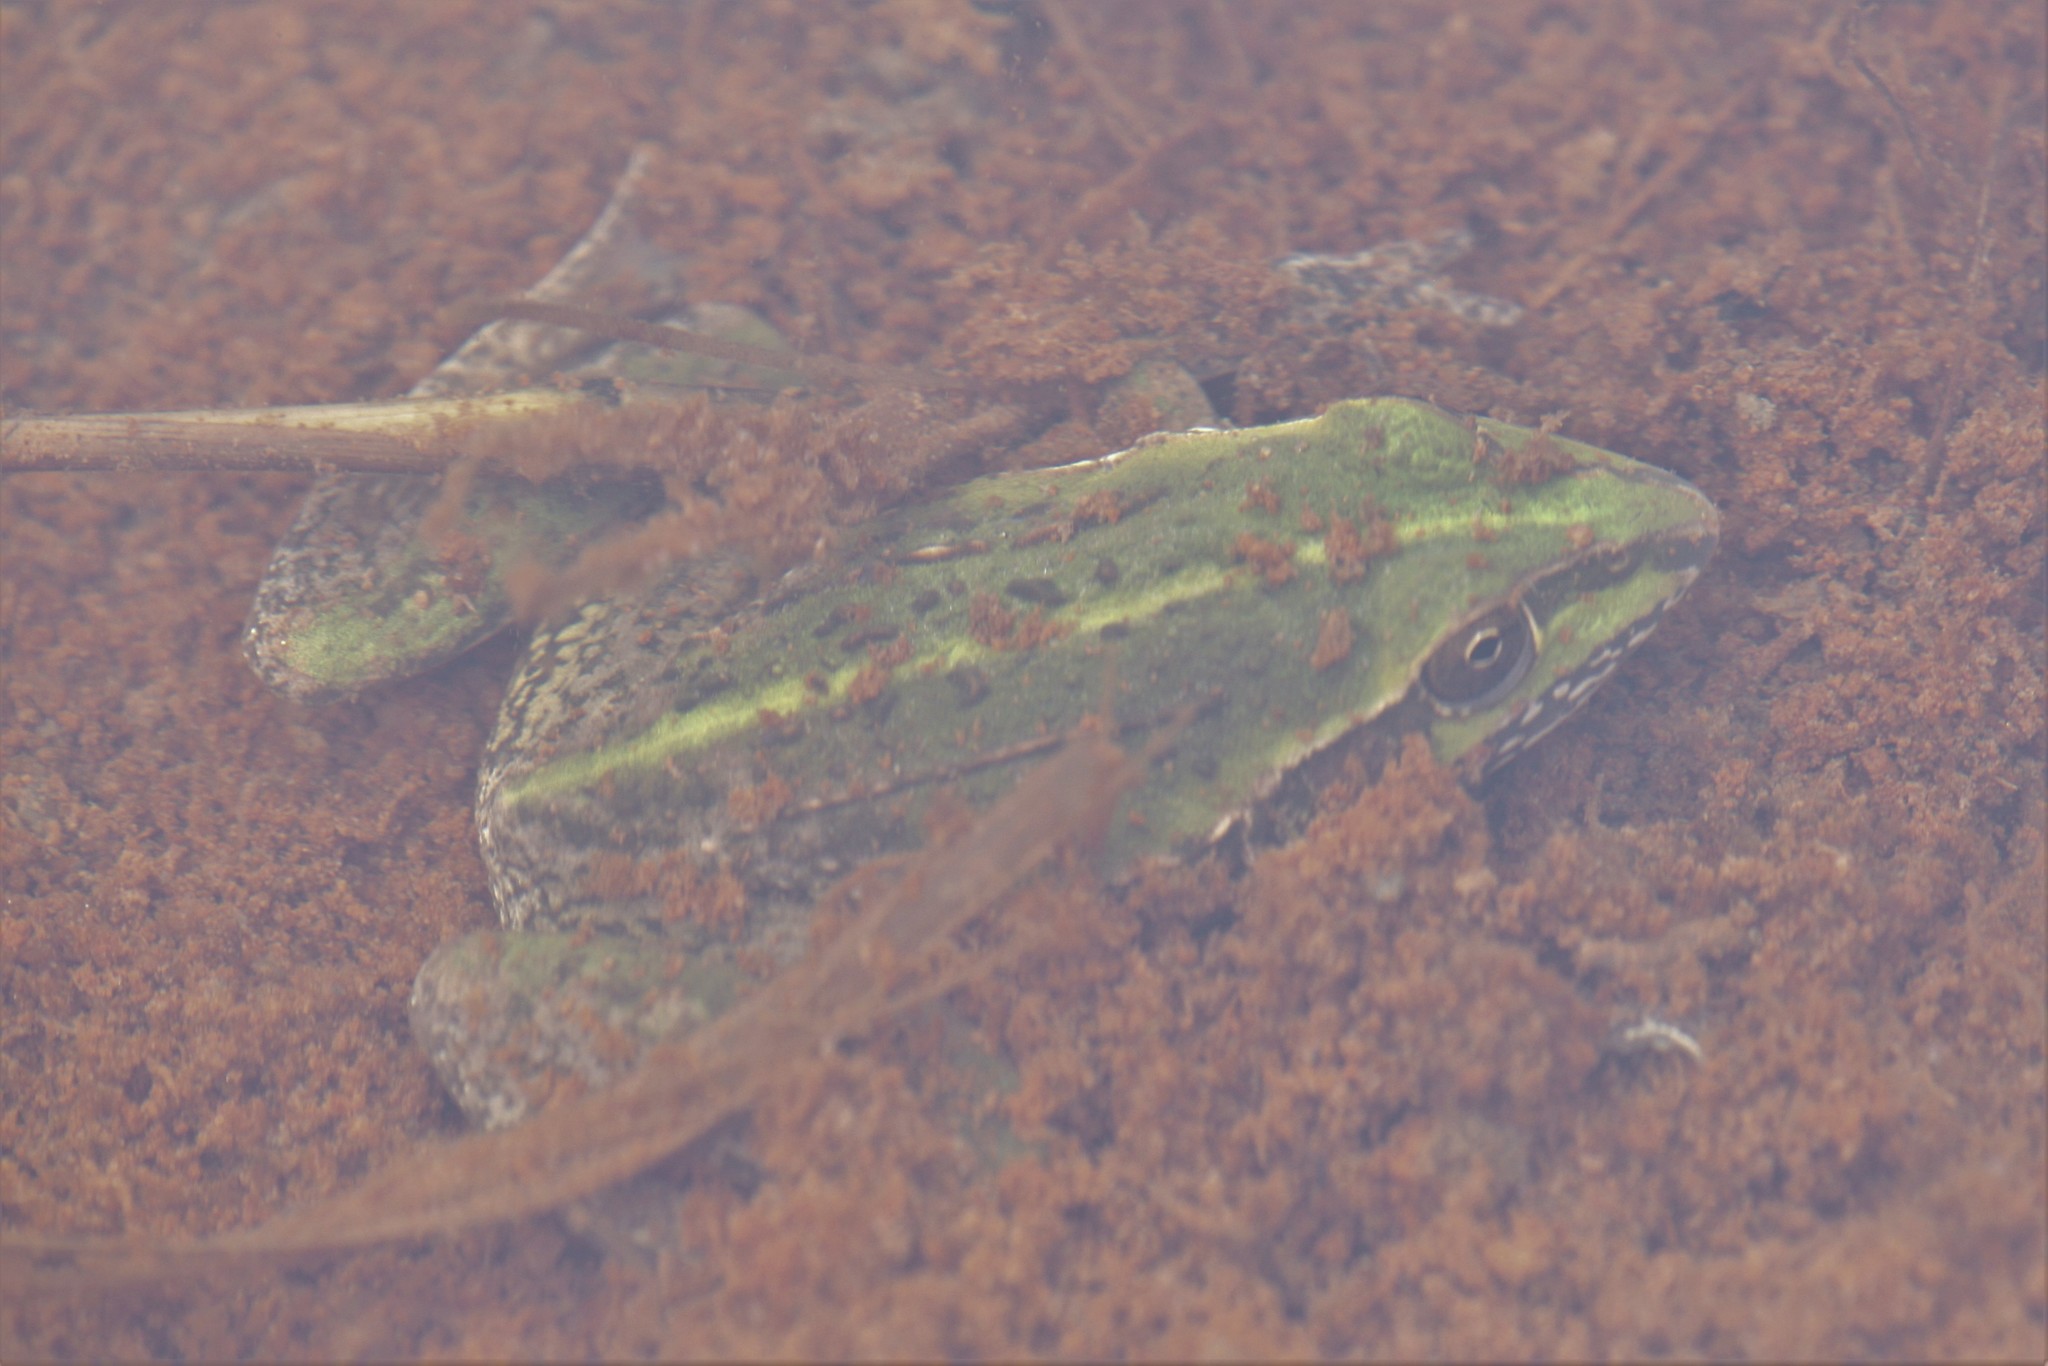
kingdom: Animalia
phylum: Chordata
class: Amphibia
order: Anura
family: Pelodryadidae
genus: Ranoidea
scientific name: Ranoidea alboguttata
